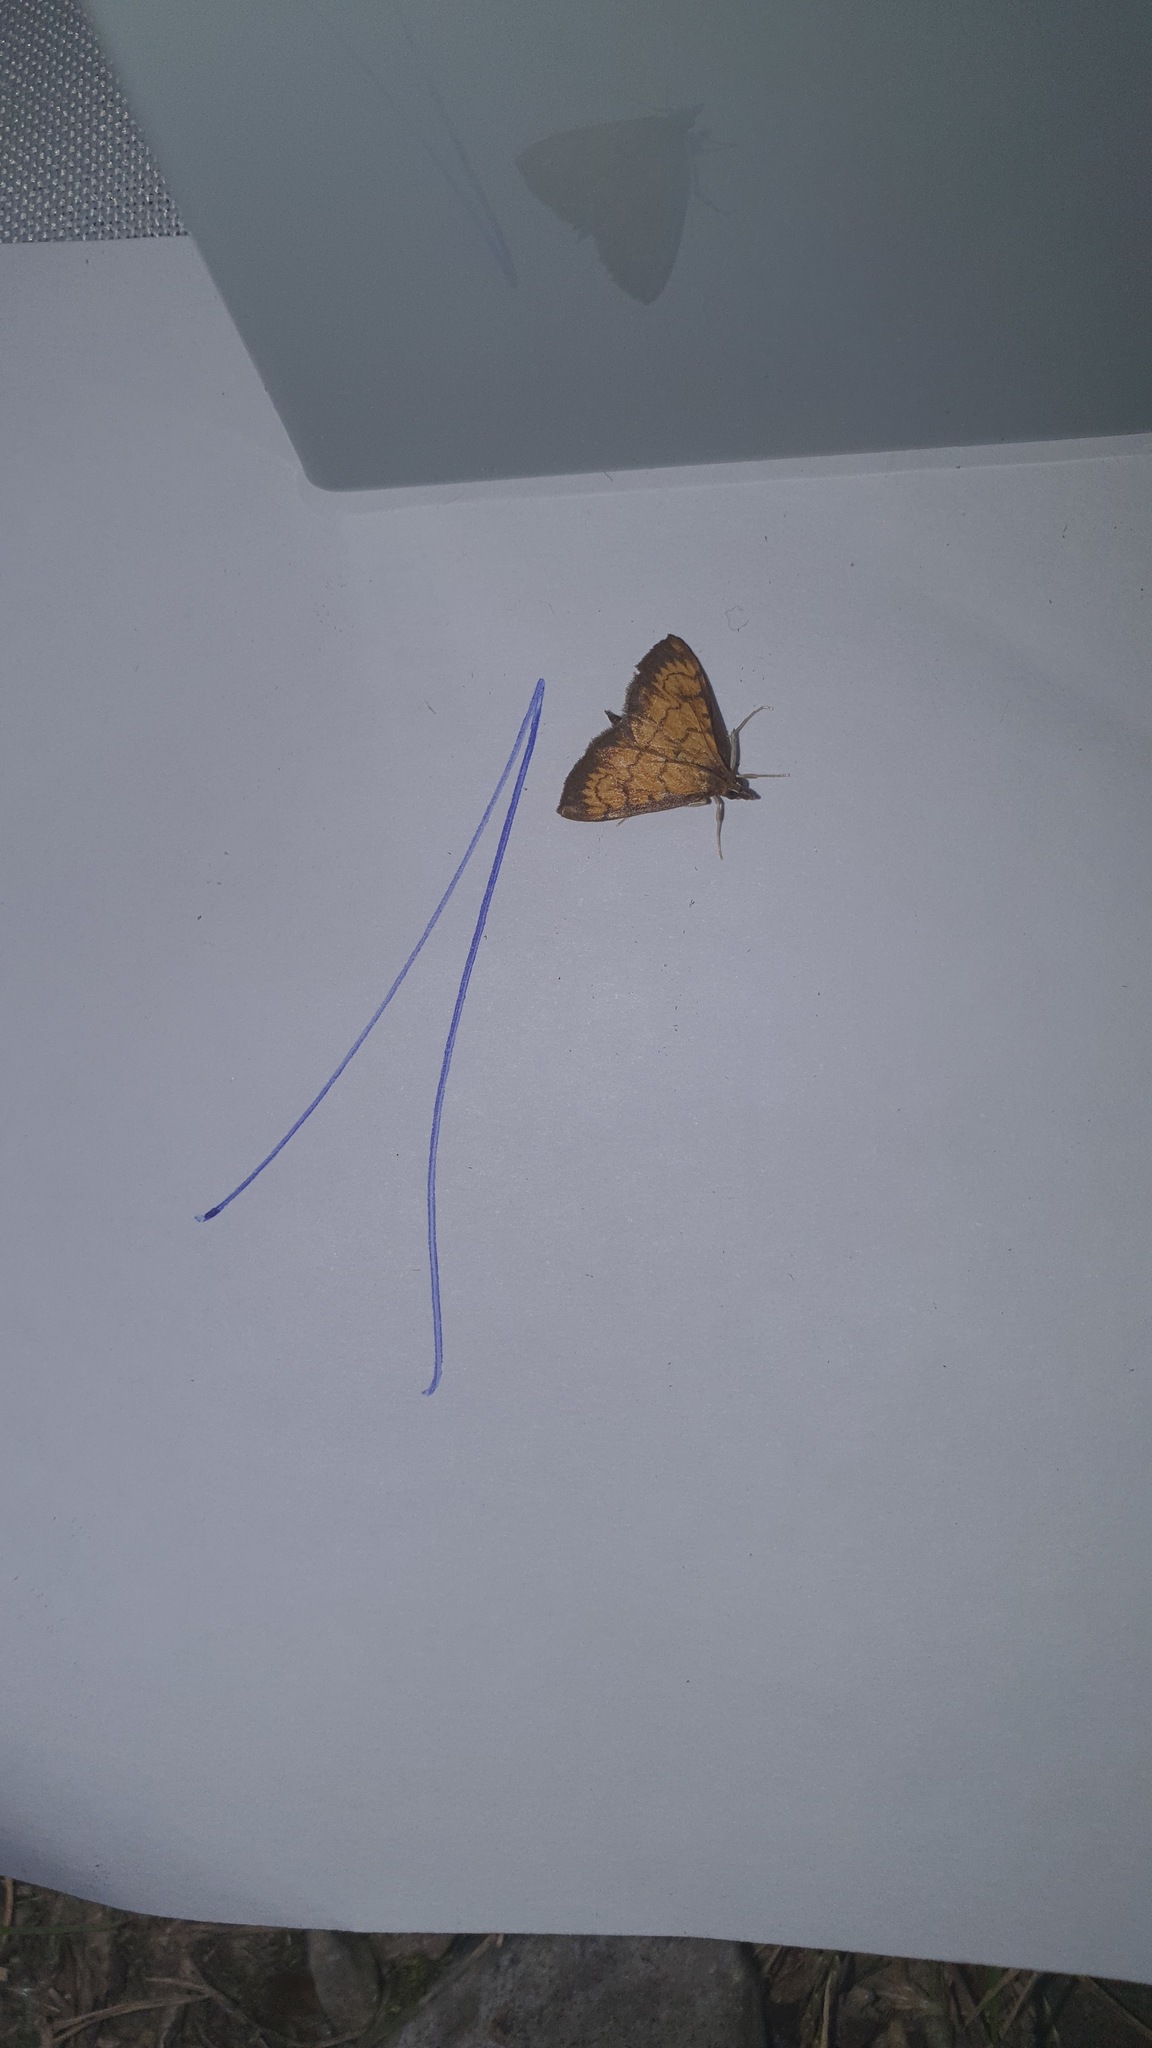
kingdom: Animalia
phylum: Arthropoda
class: Insecta
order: Lepidoptera
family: Crambidae
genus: Ecpyrrhorrhoe
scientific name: Ecpyrrhorrhoe rubiginalis
